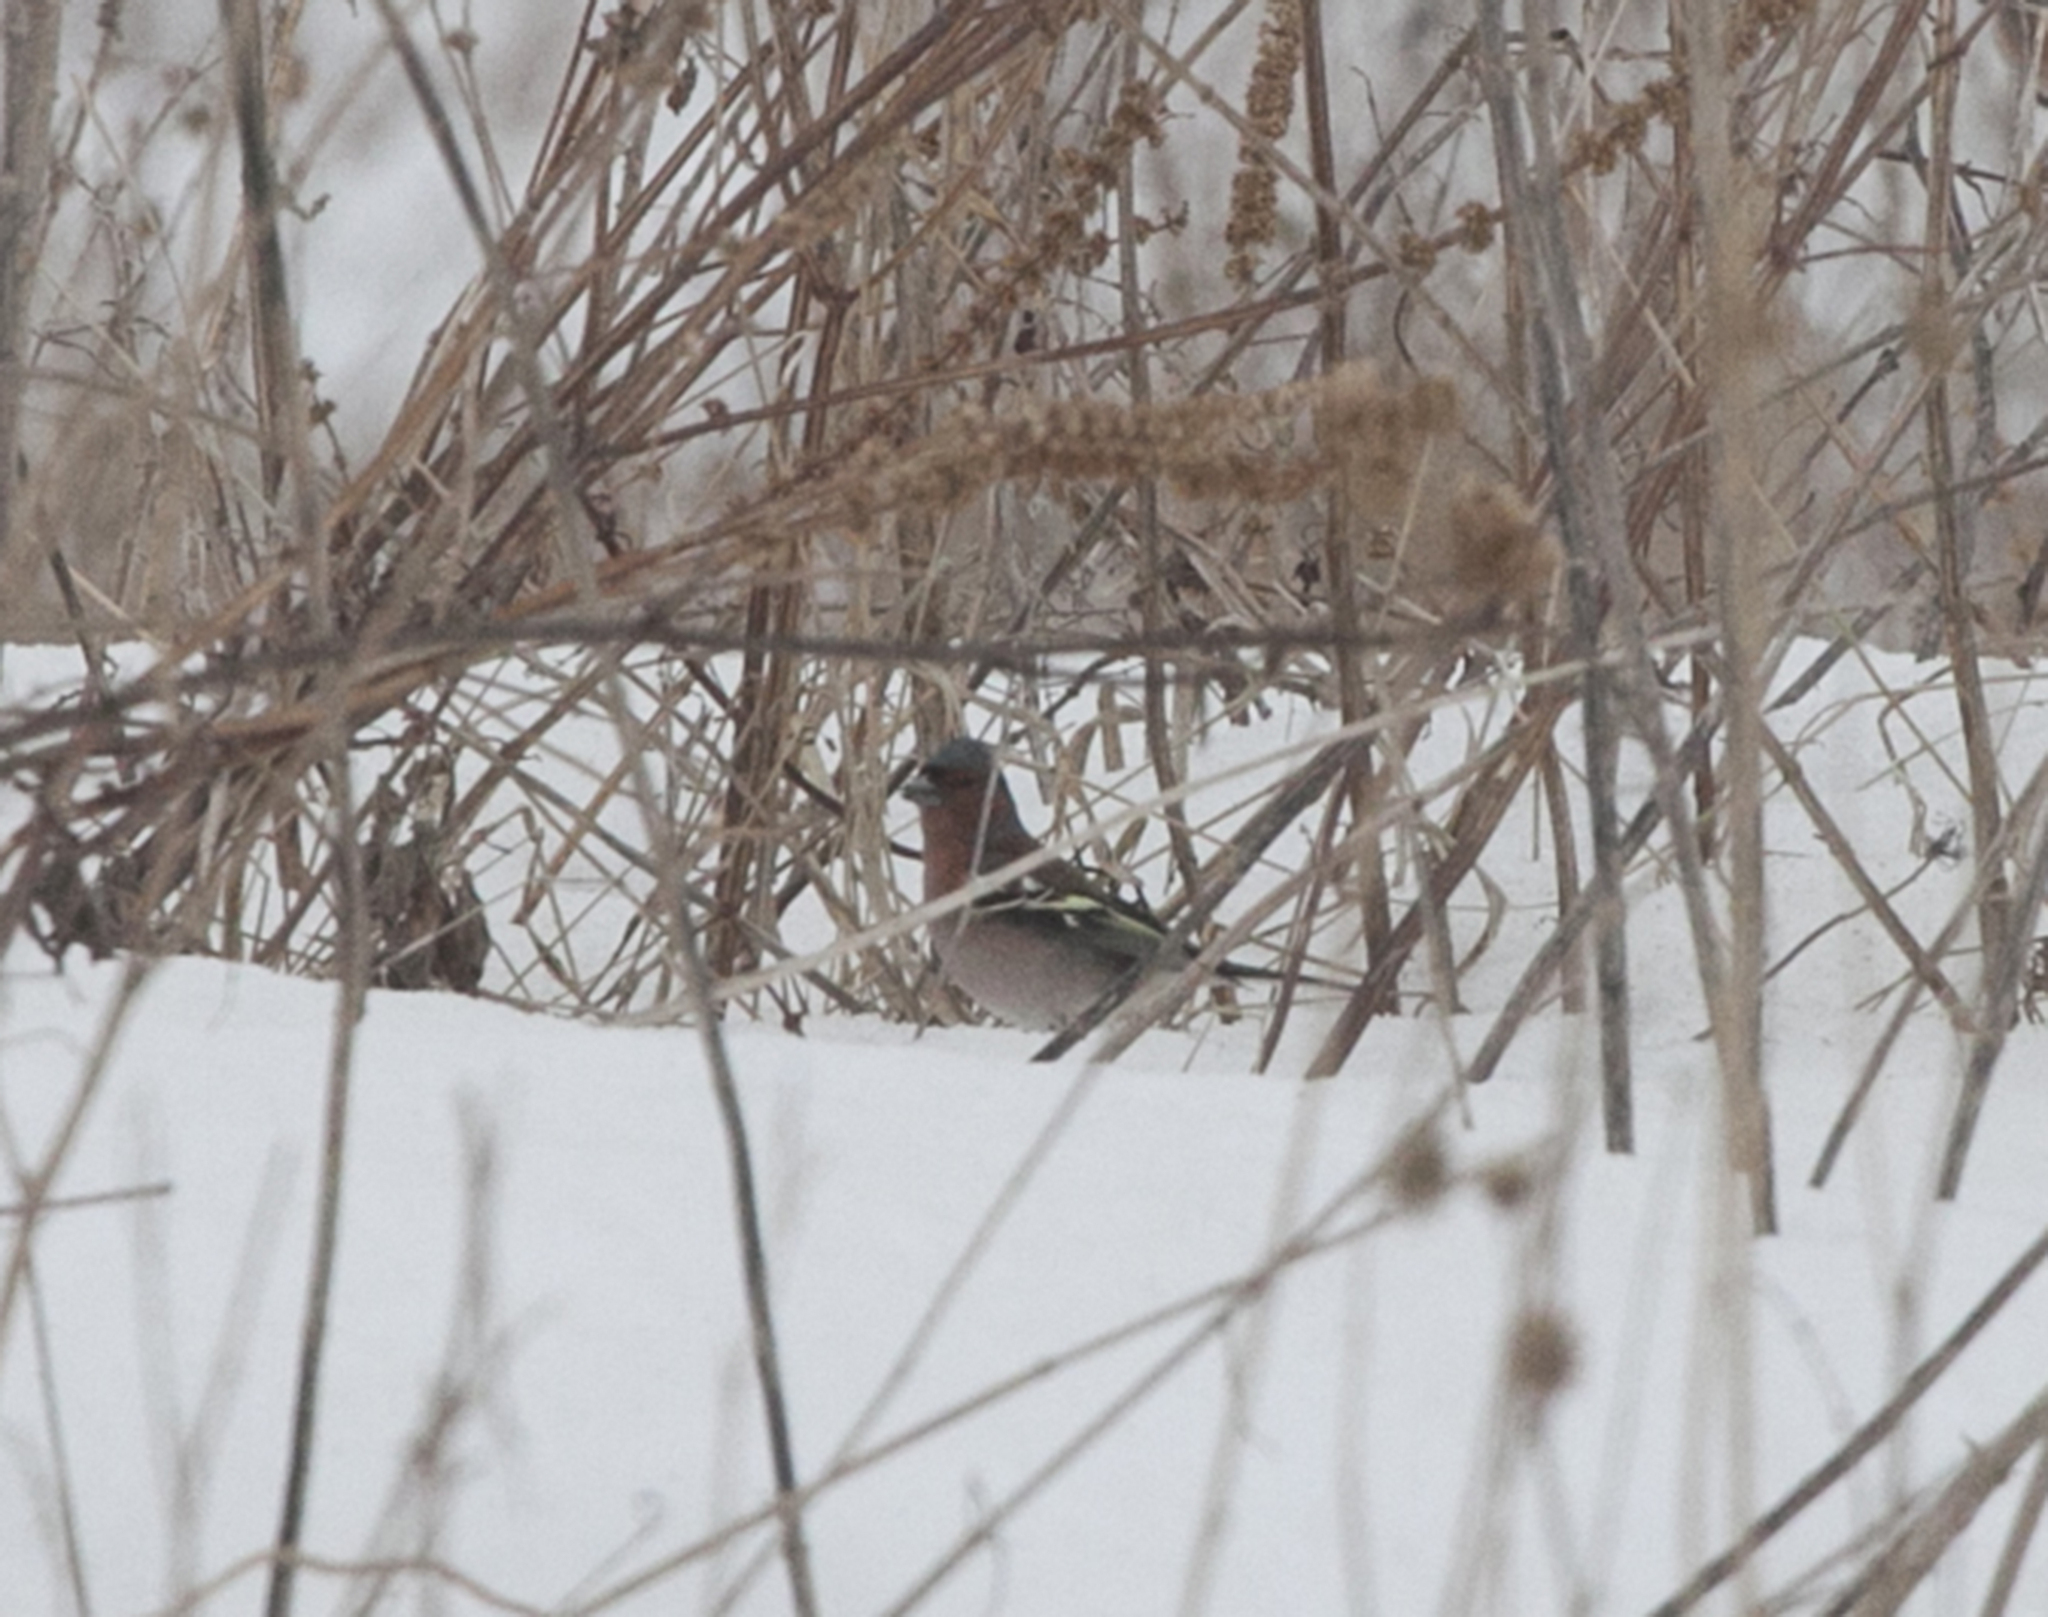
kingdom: Animalia
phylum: Chordata
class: Aves
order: Passeriformes
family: Fringillidae
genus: Fringilla
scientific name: Fringilla coelebs
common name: Common chaffinch
